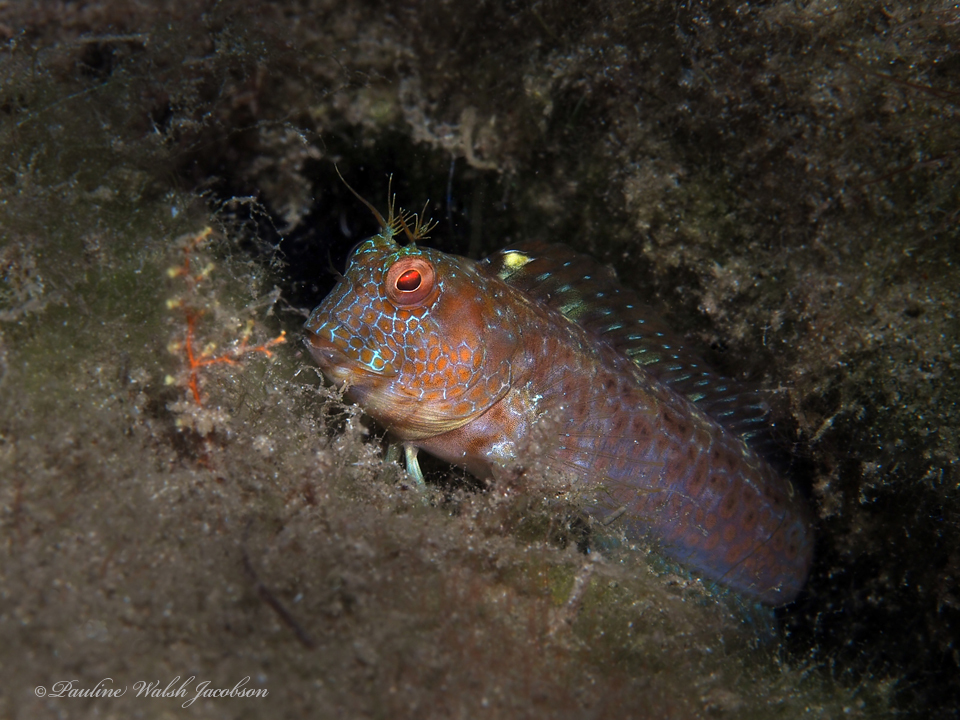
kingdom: Animalia
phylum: Chordata
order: Perciformes
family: Blenniidae
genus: Parablennius
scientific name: Parablennius marmoreus
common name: Seaweed blenny
